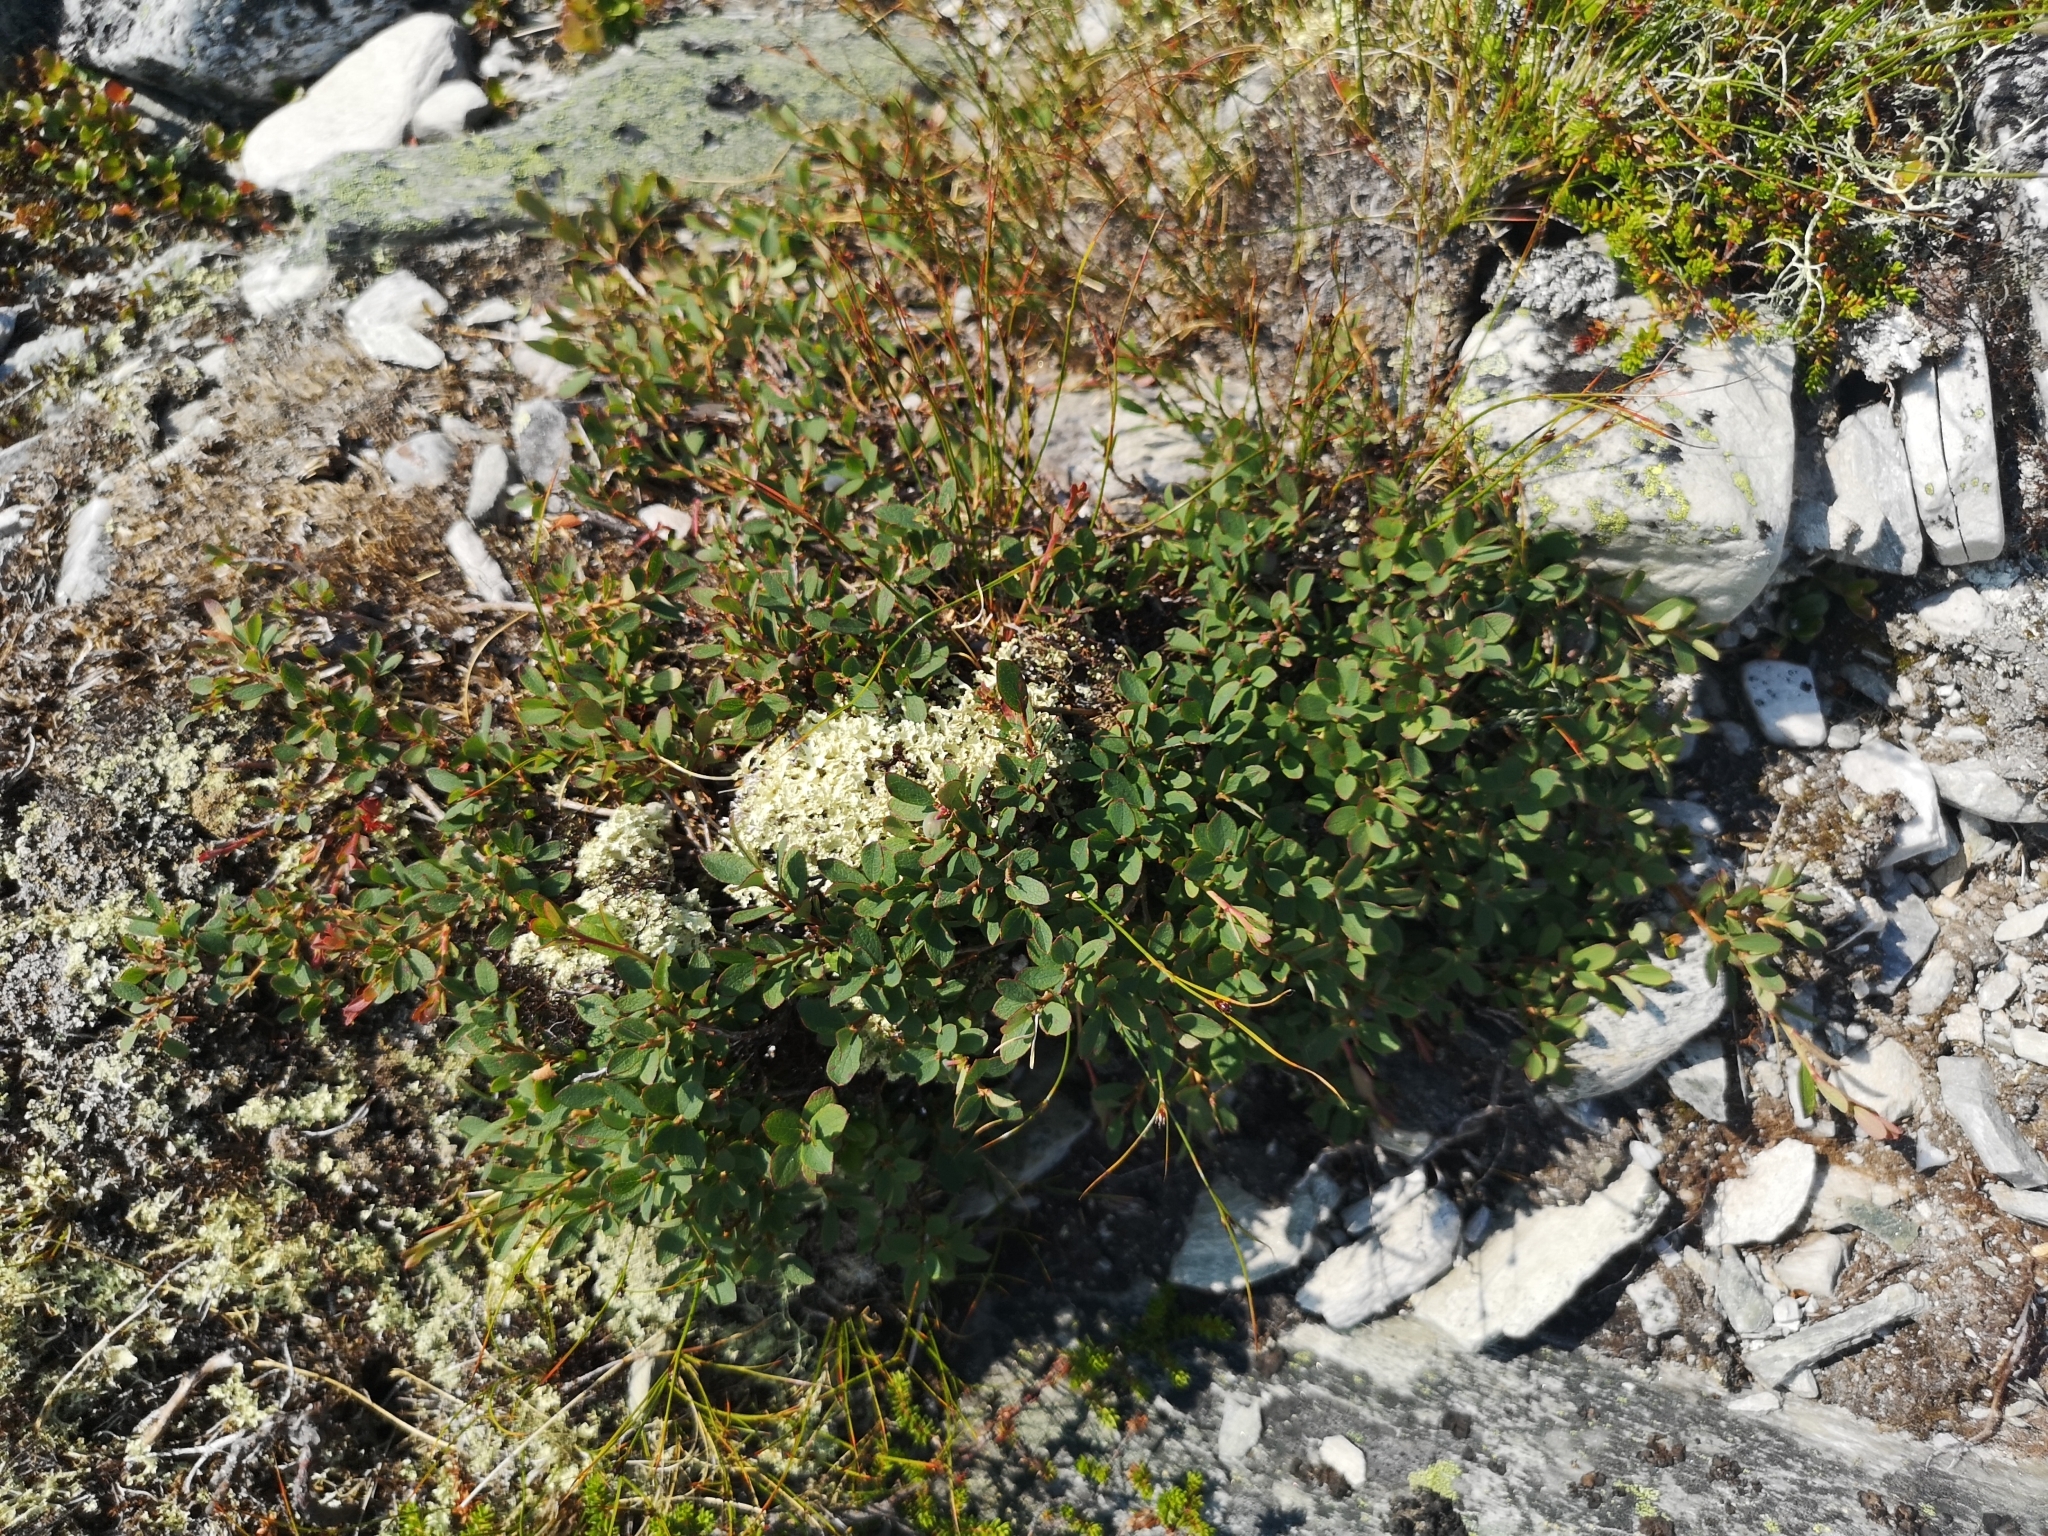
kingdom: Plantae
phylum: Tracheophyta
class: Magnoliopsida
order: Ericales
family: Ericaceae
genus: Vaccinium
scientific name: Vaccinium uliginosum
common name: Bog bilberry
